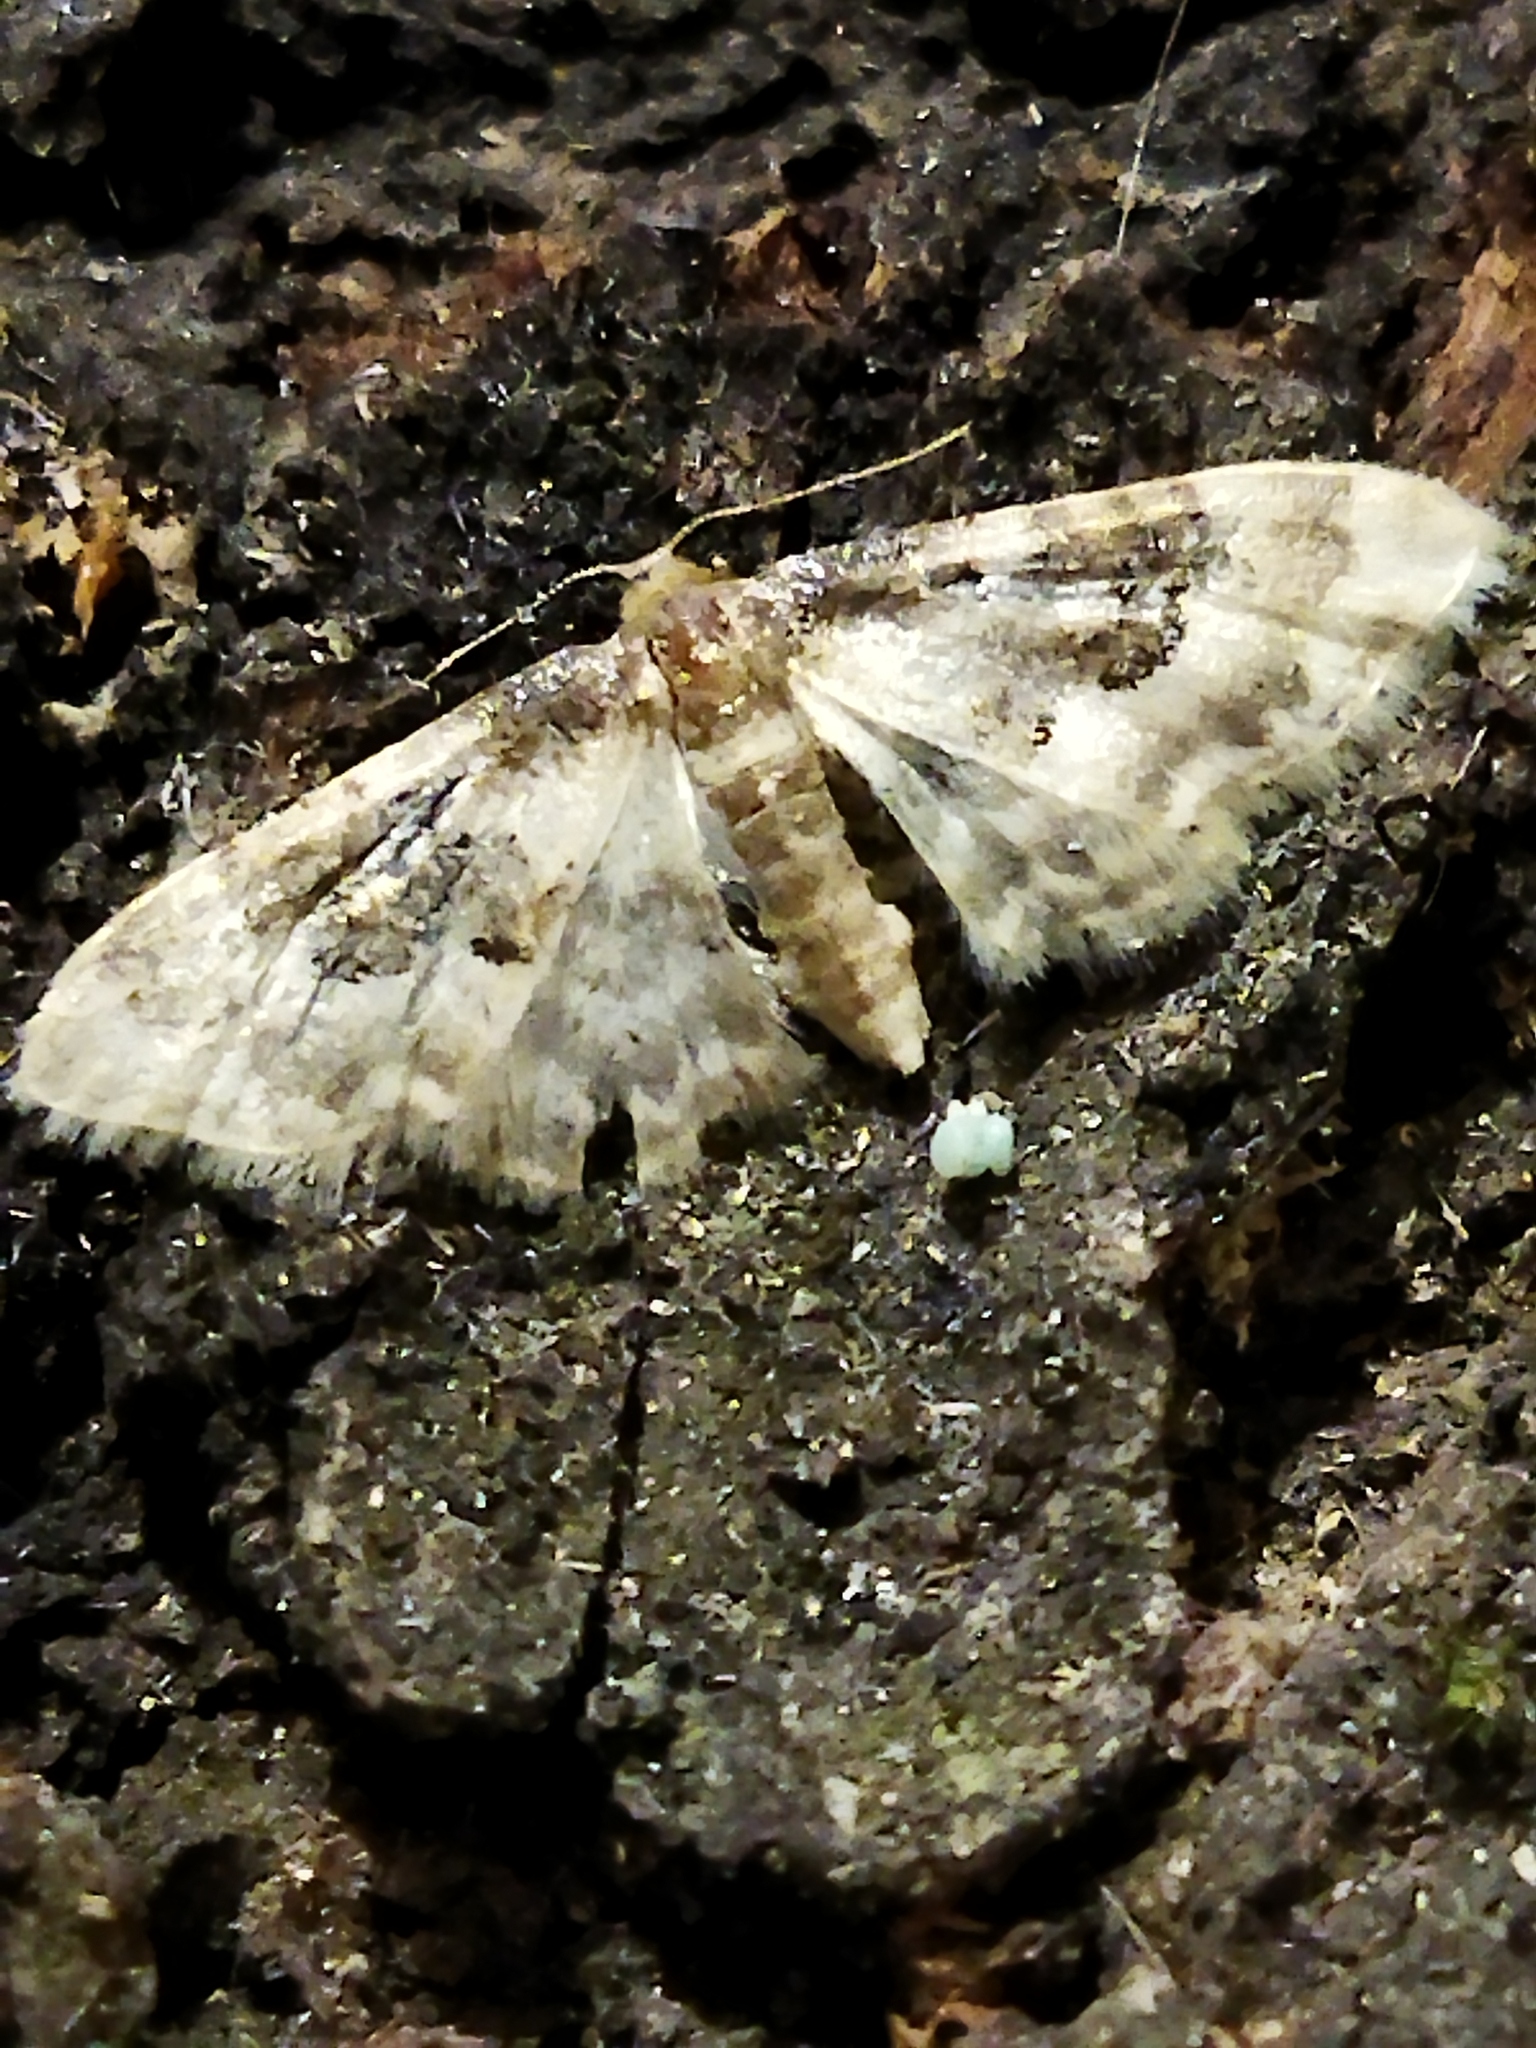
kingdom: Animalia
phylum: Arthropoda
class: Insecta
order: Lepidoptera
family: Geometridae
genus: Idaea
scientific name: Idaea rusticata
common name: Least carpet
